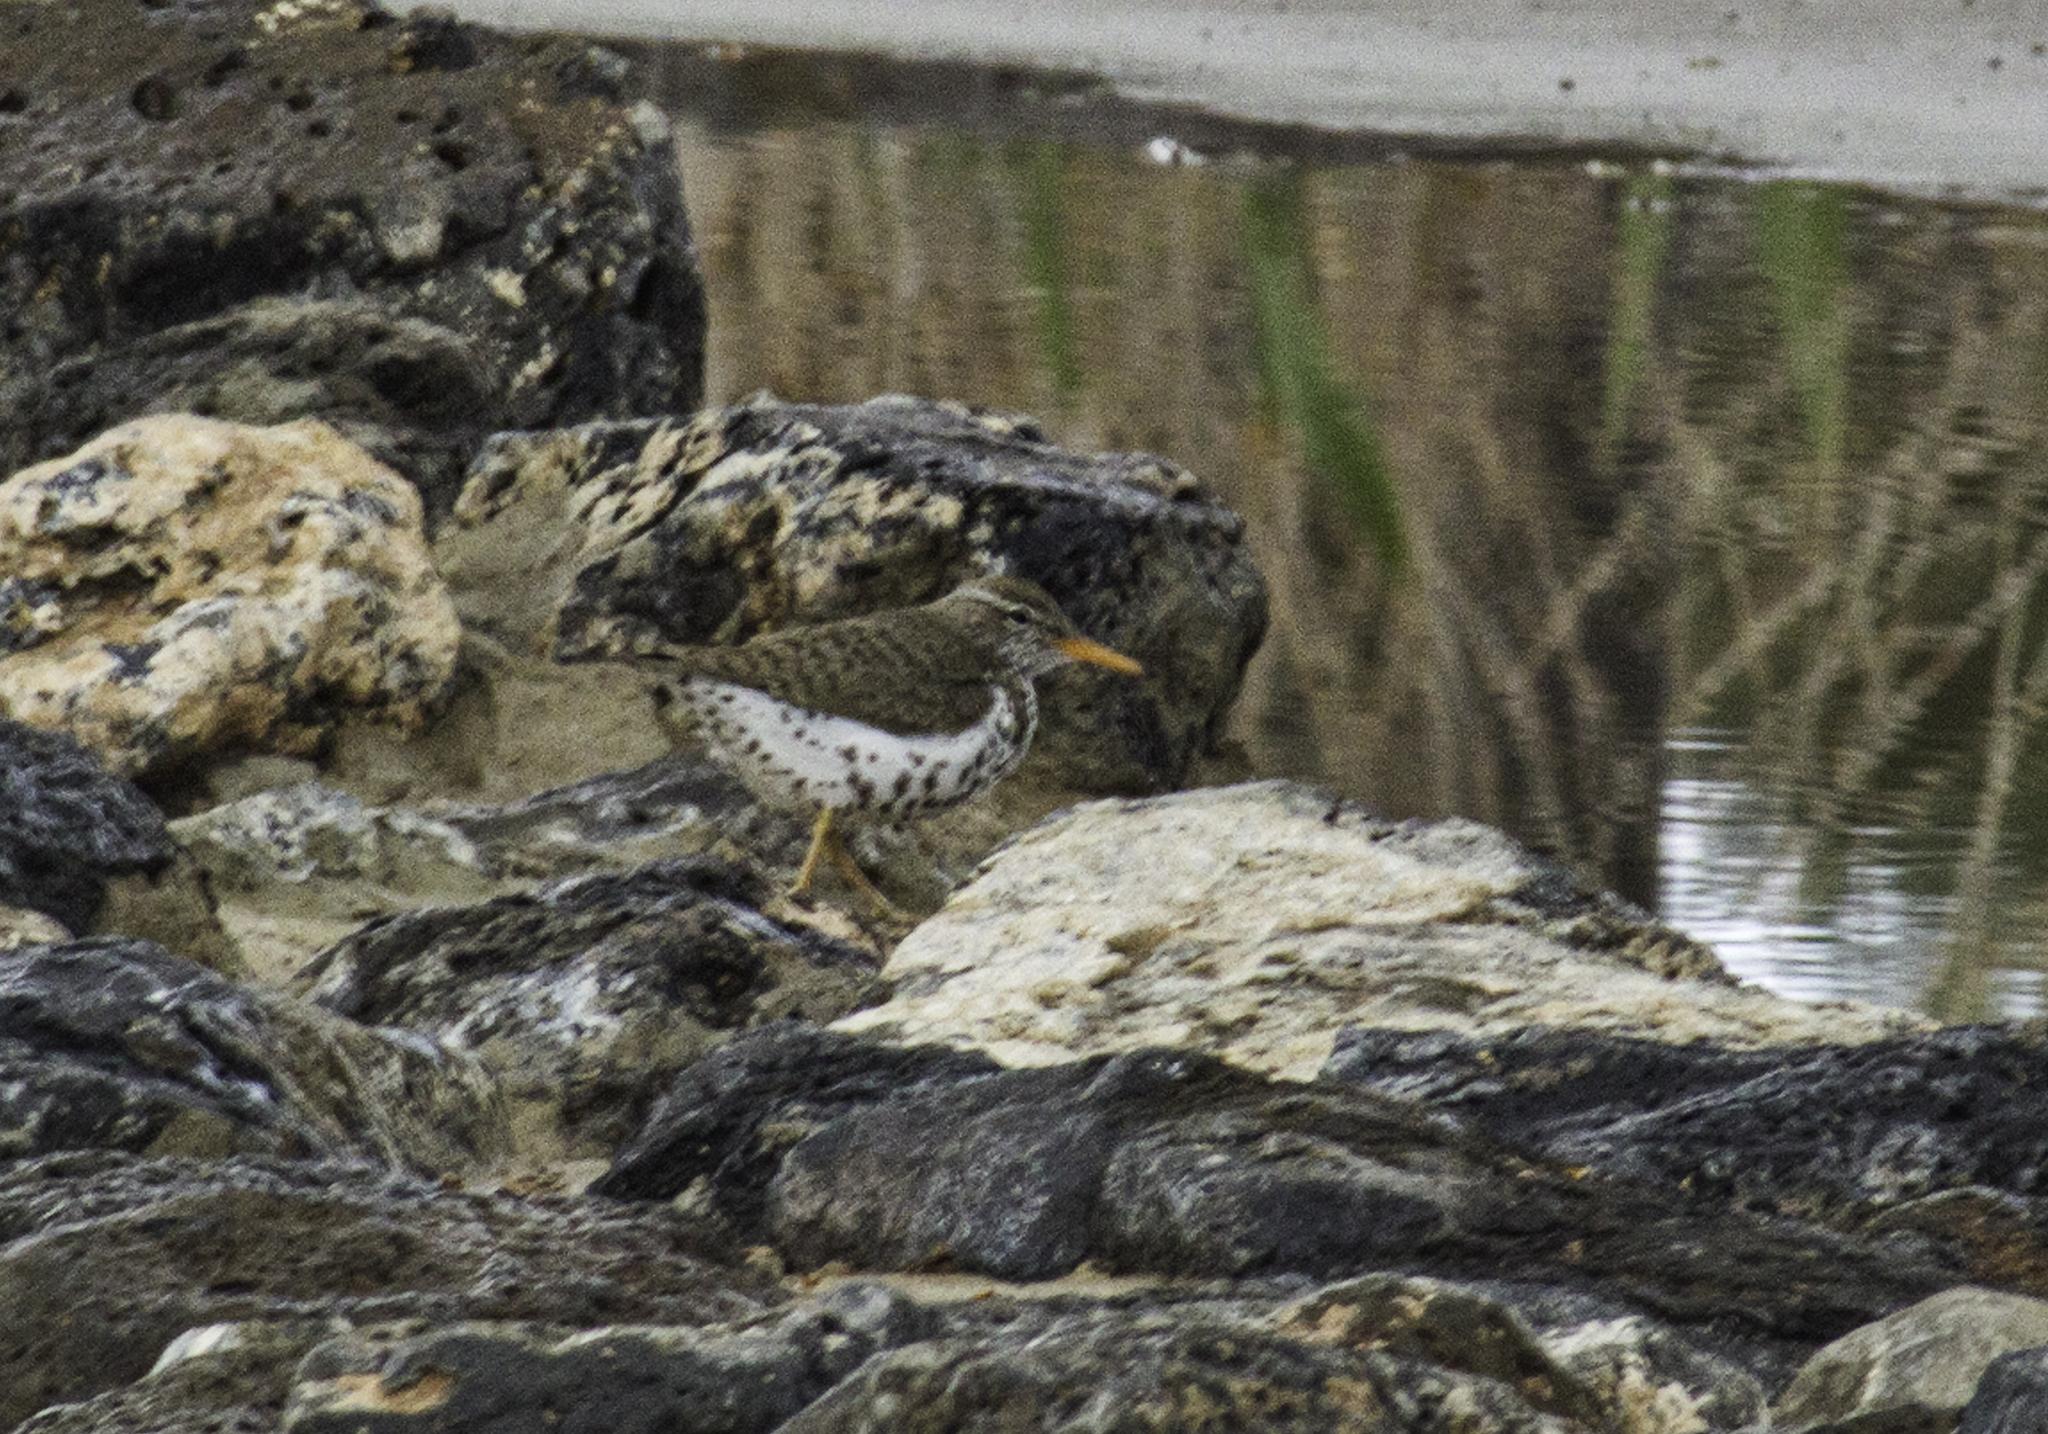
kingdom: Animalia
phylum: Chordata
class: Aves
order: Charadriiformes
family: Scolopacidae
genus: Actitis
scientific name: Actitis macularius
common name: Spotted sandpiper
